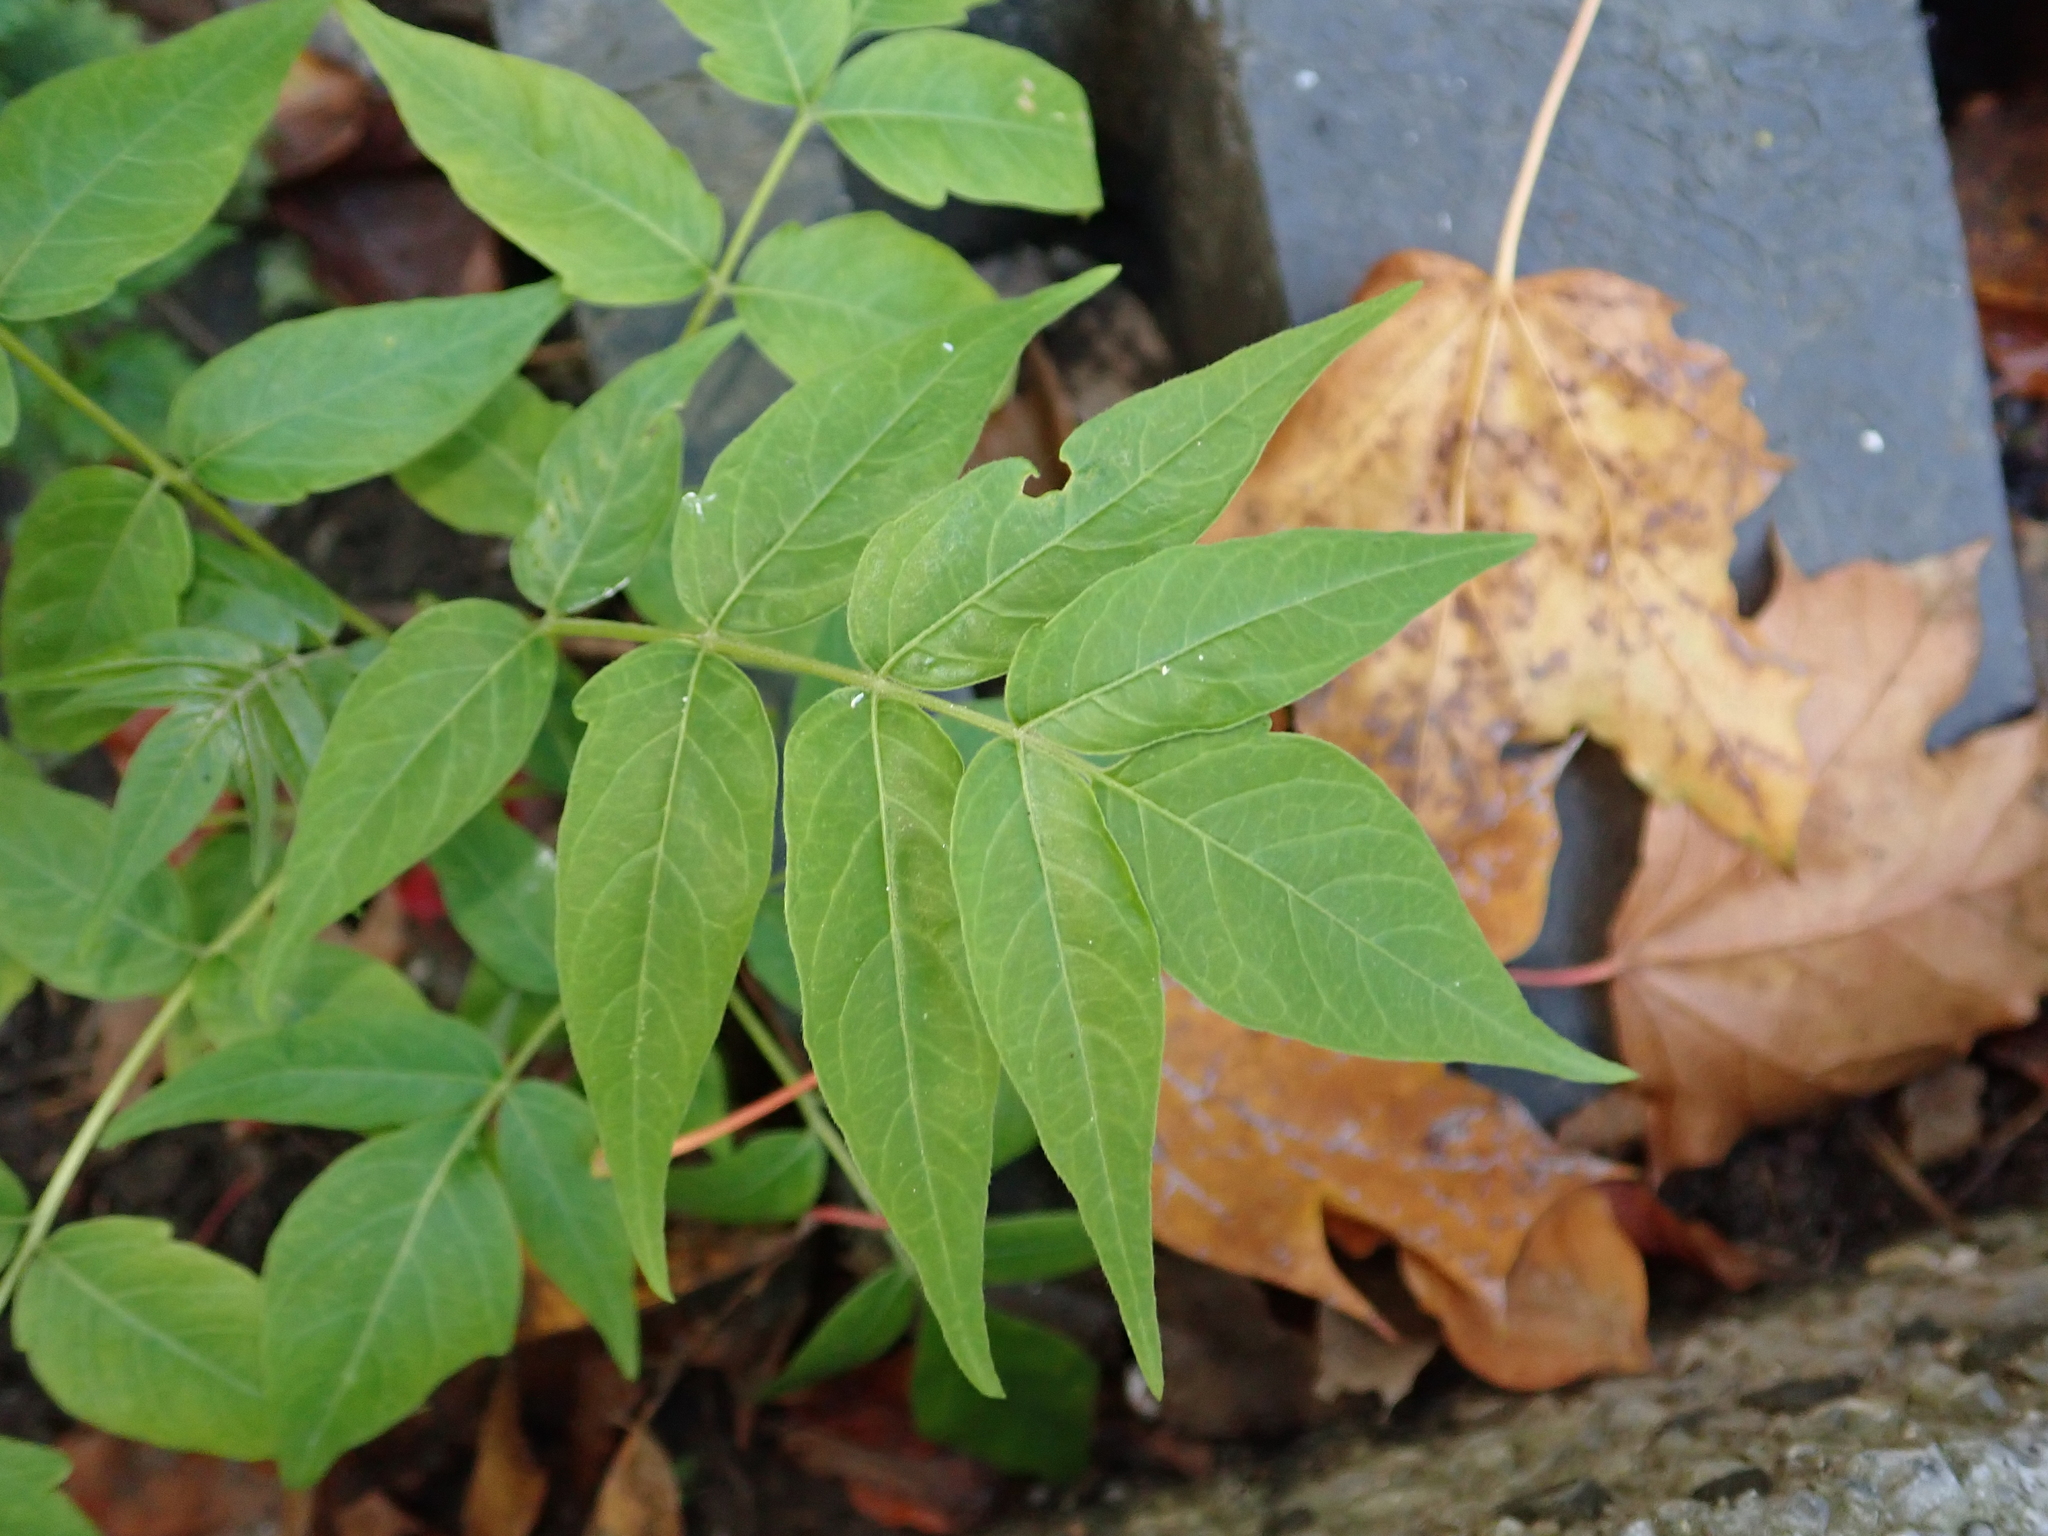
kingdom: Plantae
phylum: Tracheophyta
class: Magnoliopsida
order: Sapindales
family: Simaroubaceae
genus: Ailanthus
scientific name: Ailanthus altissima
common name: Tree-of-heaven
